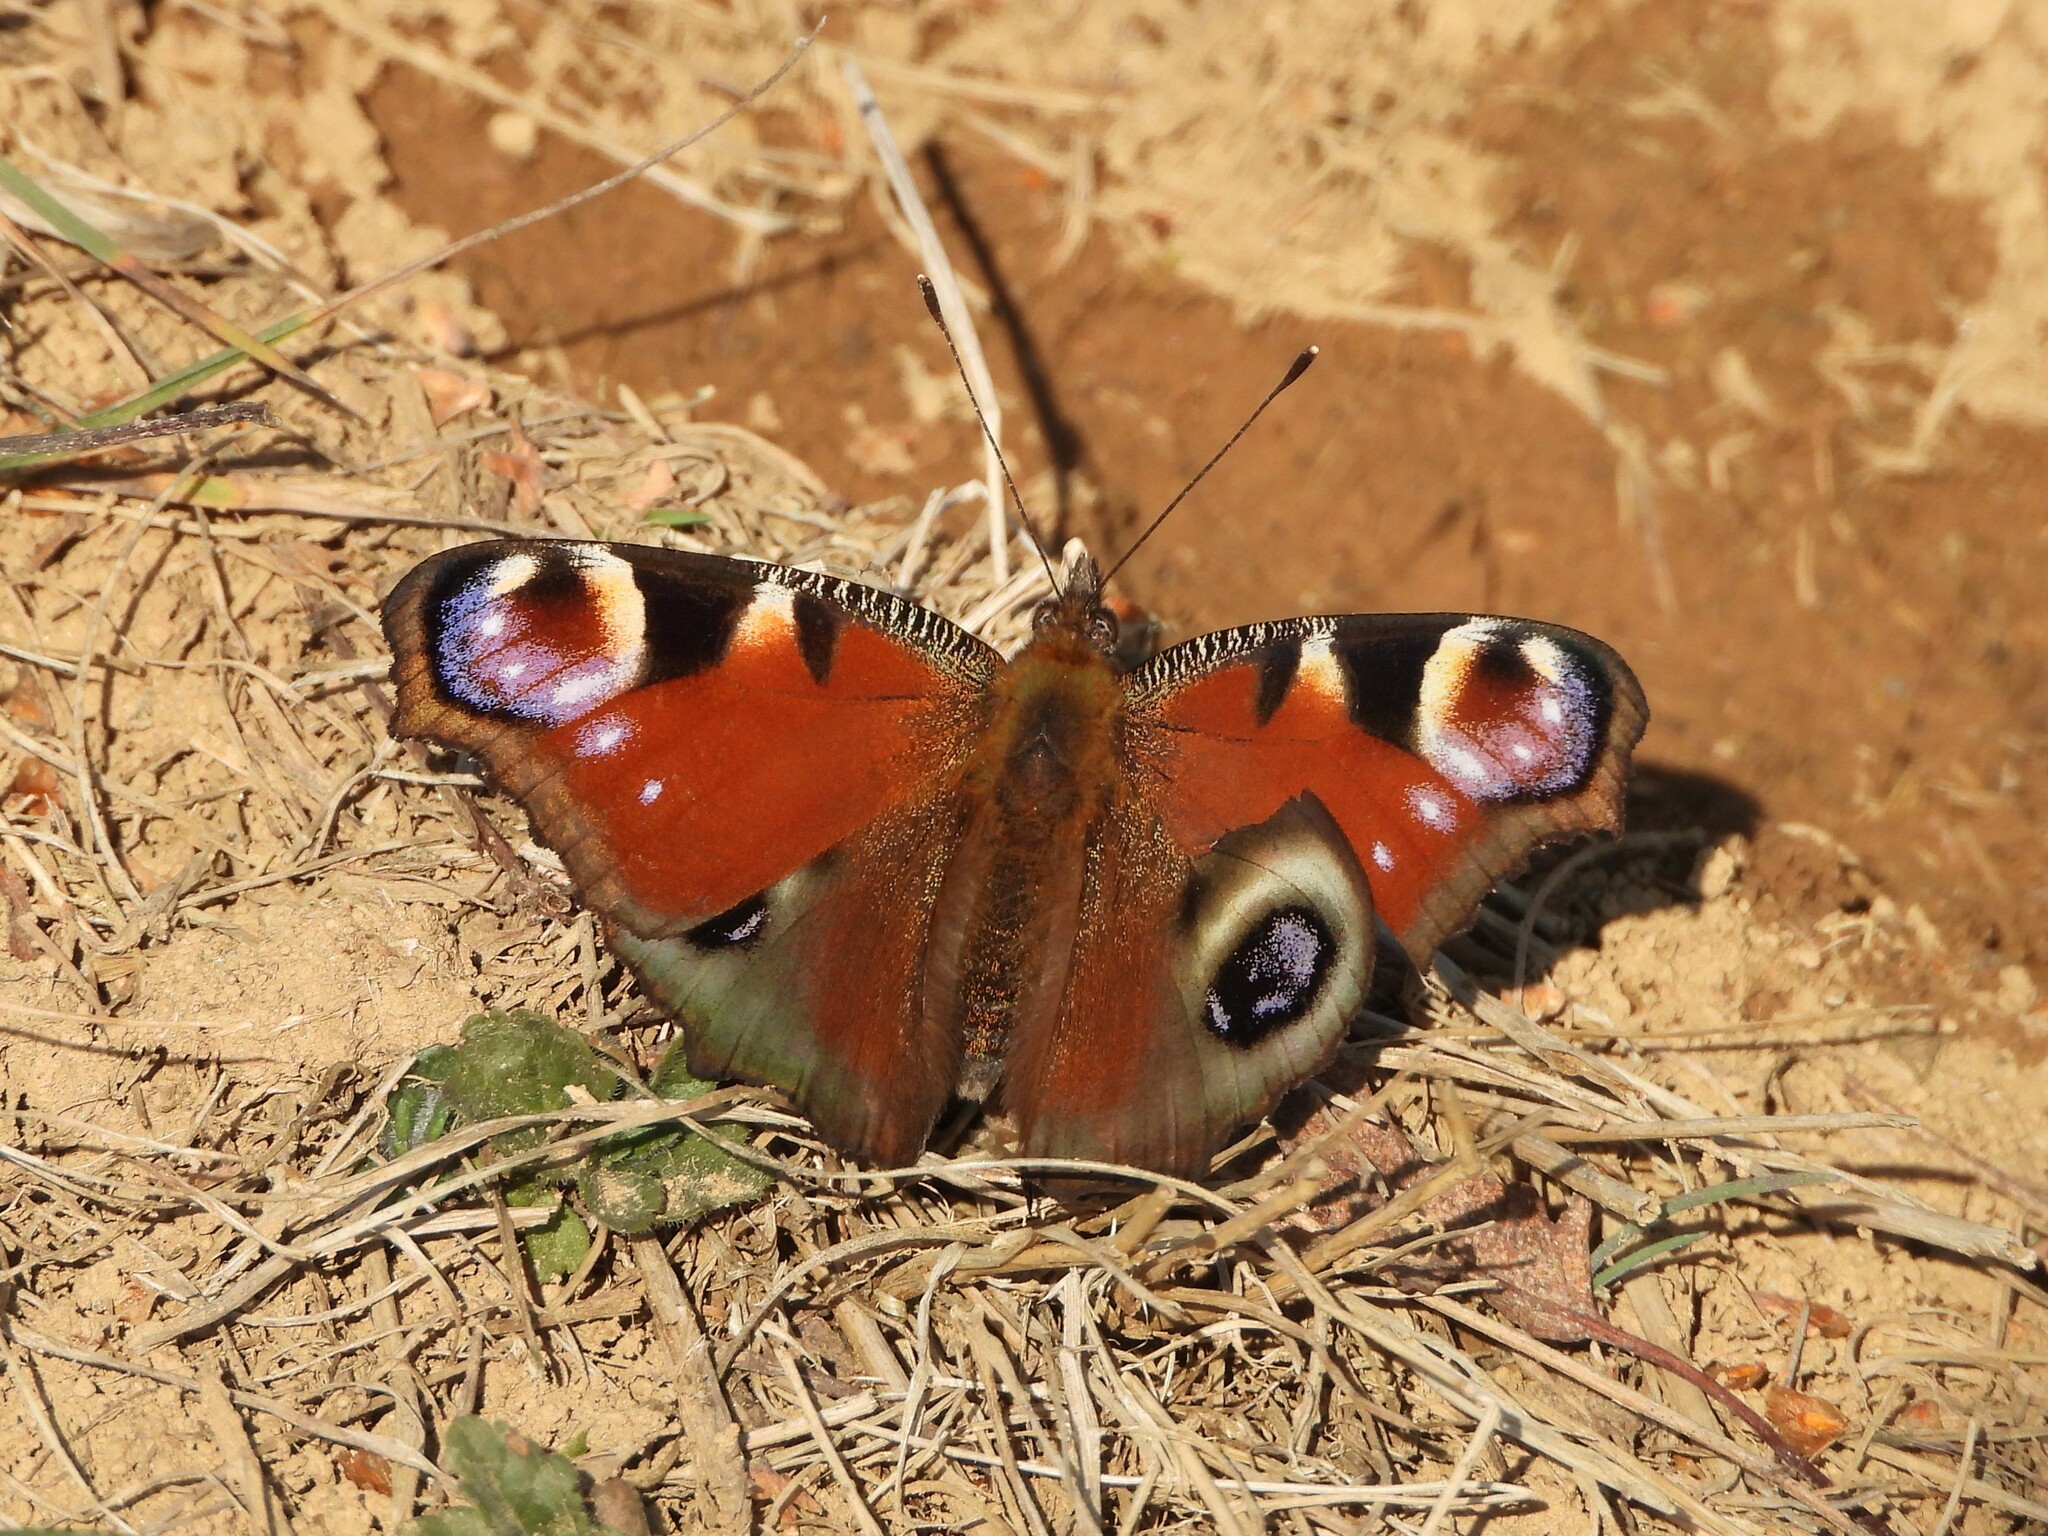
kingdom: Animalia
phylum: Arthropoda
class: Insecta
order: Lepidoptera
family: Nymphalidae
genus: Aglais
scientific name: Aglais io
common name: Peacock
